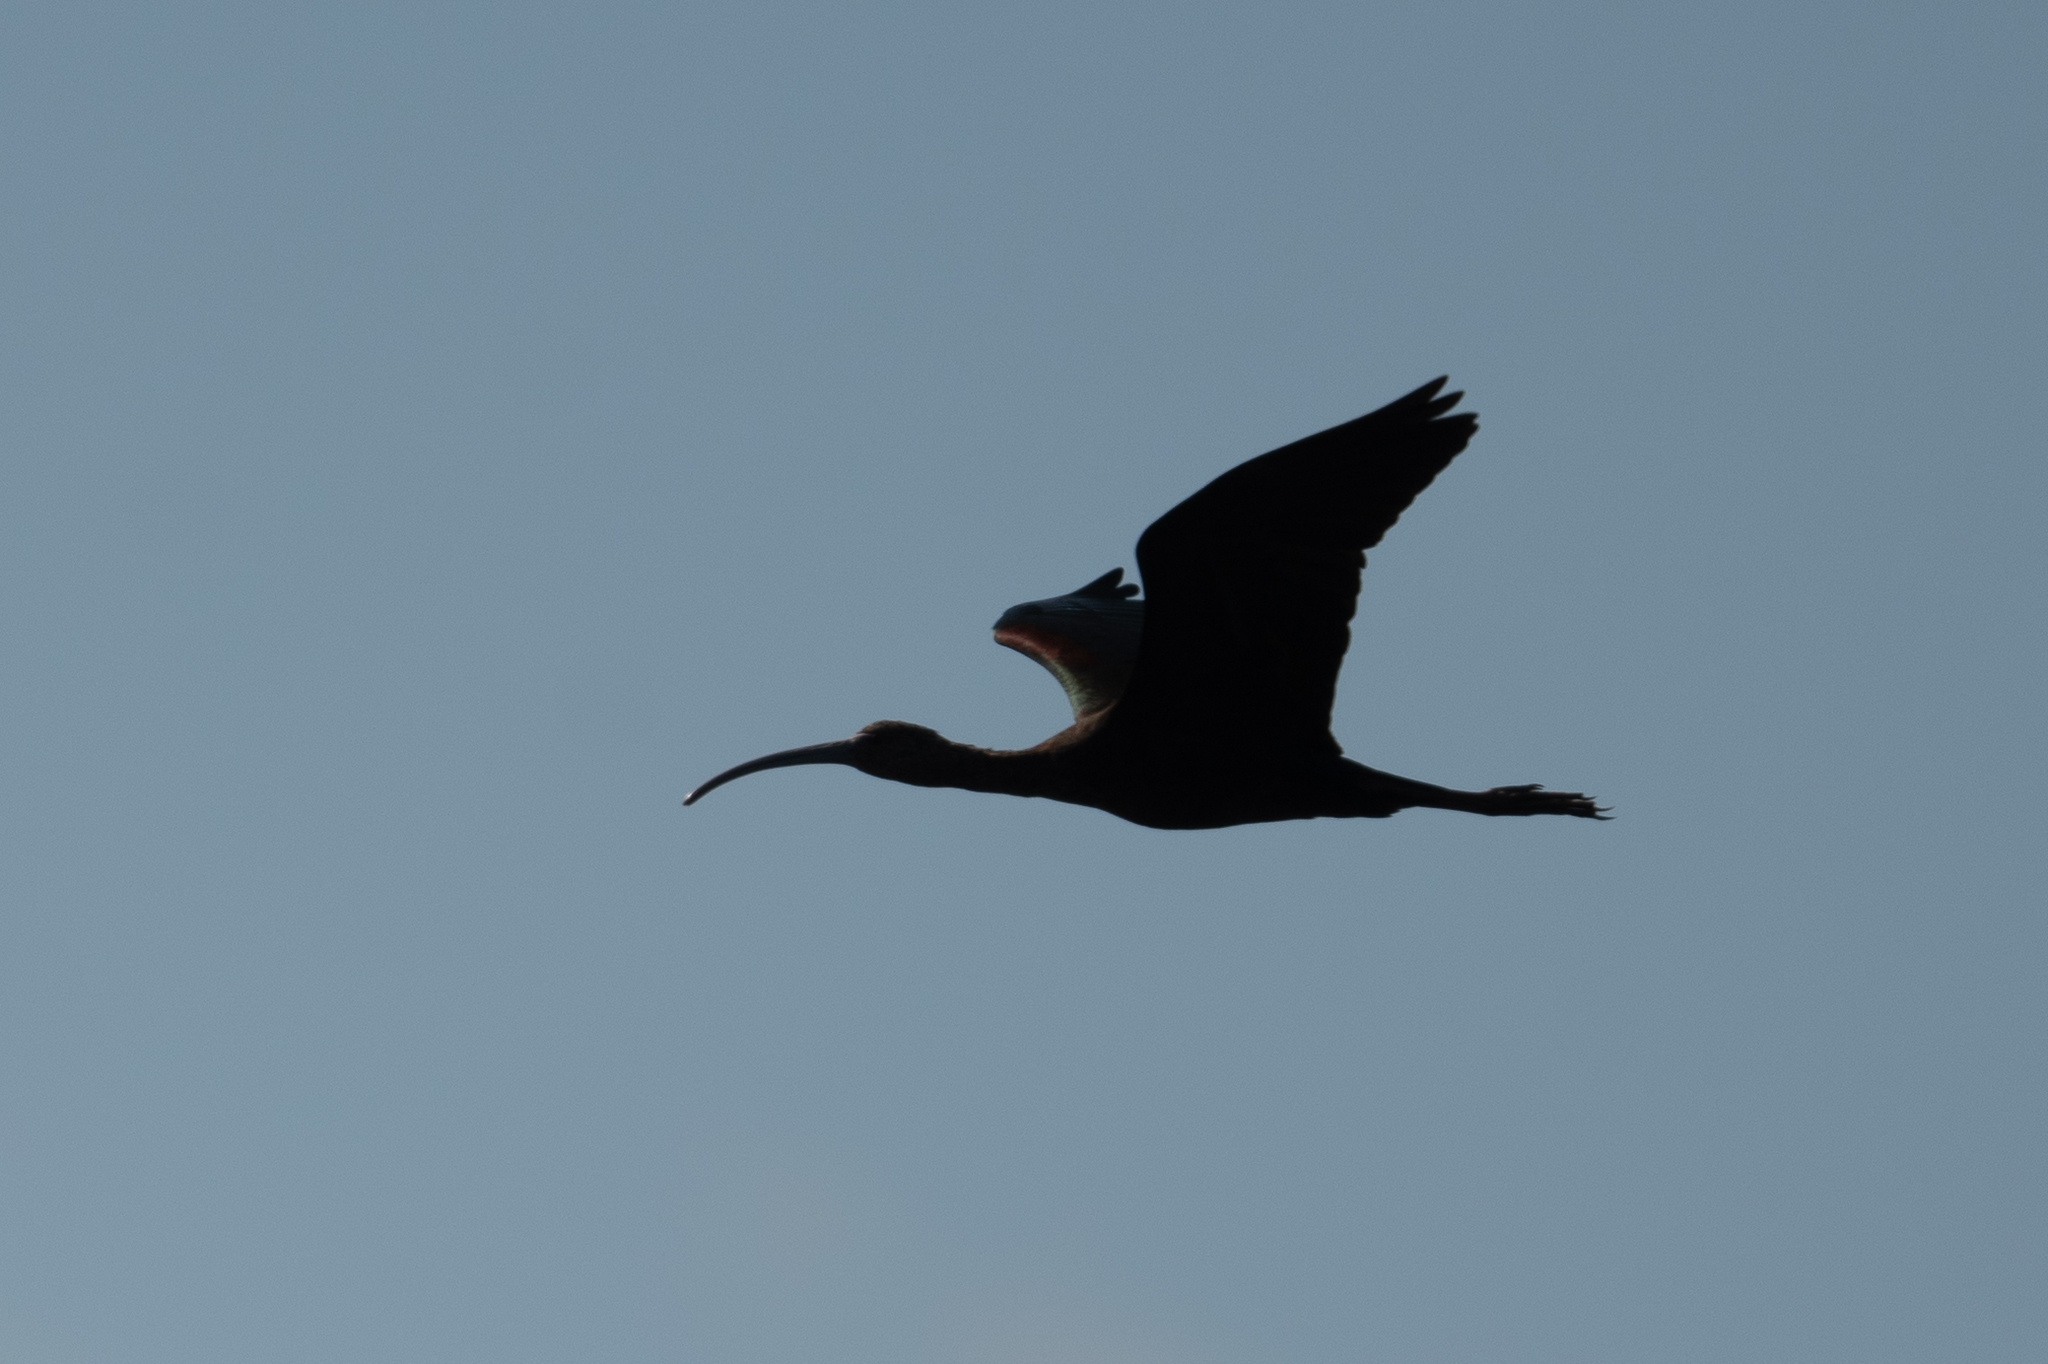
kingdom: Animalia
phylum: Chordata
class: Aves
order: Pelecaniformes
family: Threskiornithidae
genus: Plegadis
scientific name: Plegadis chihi
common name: White-faced ibis
